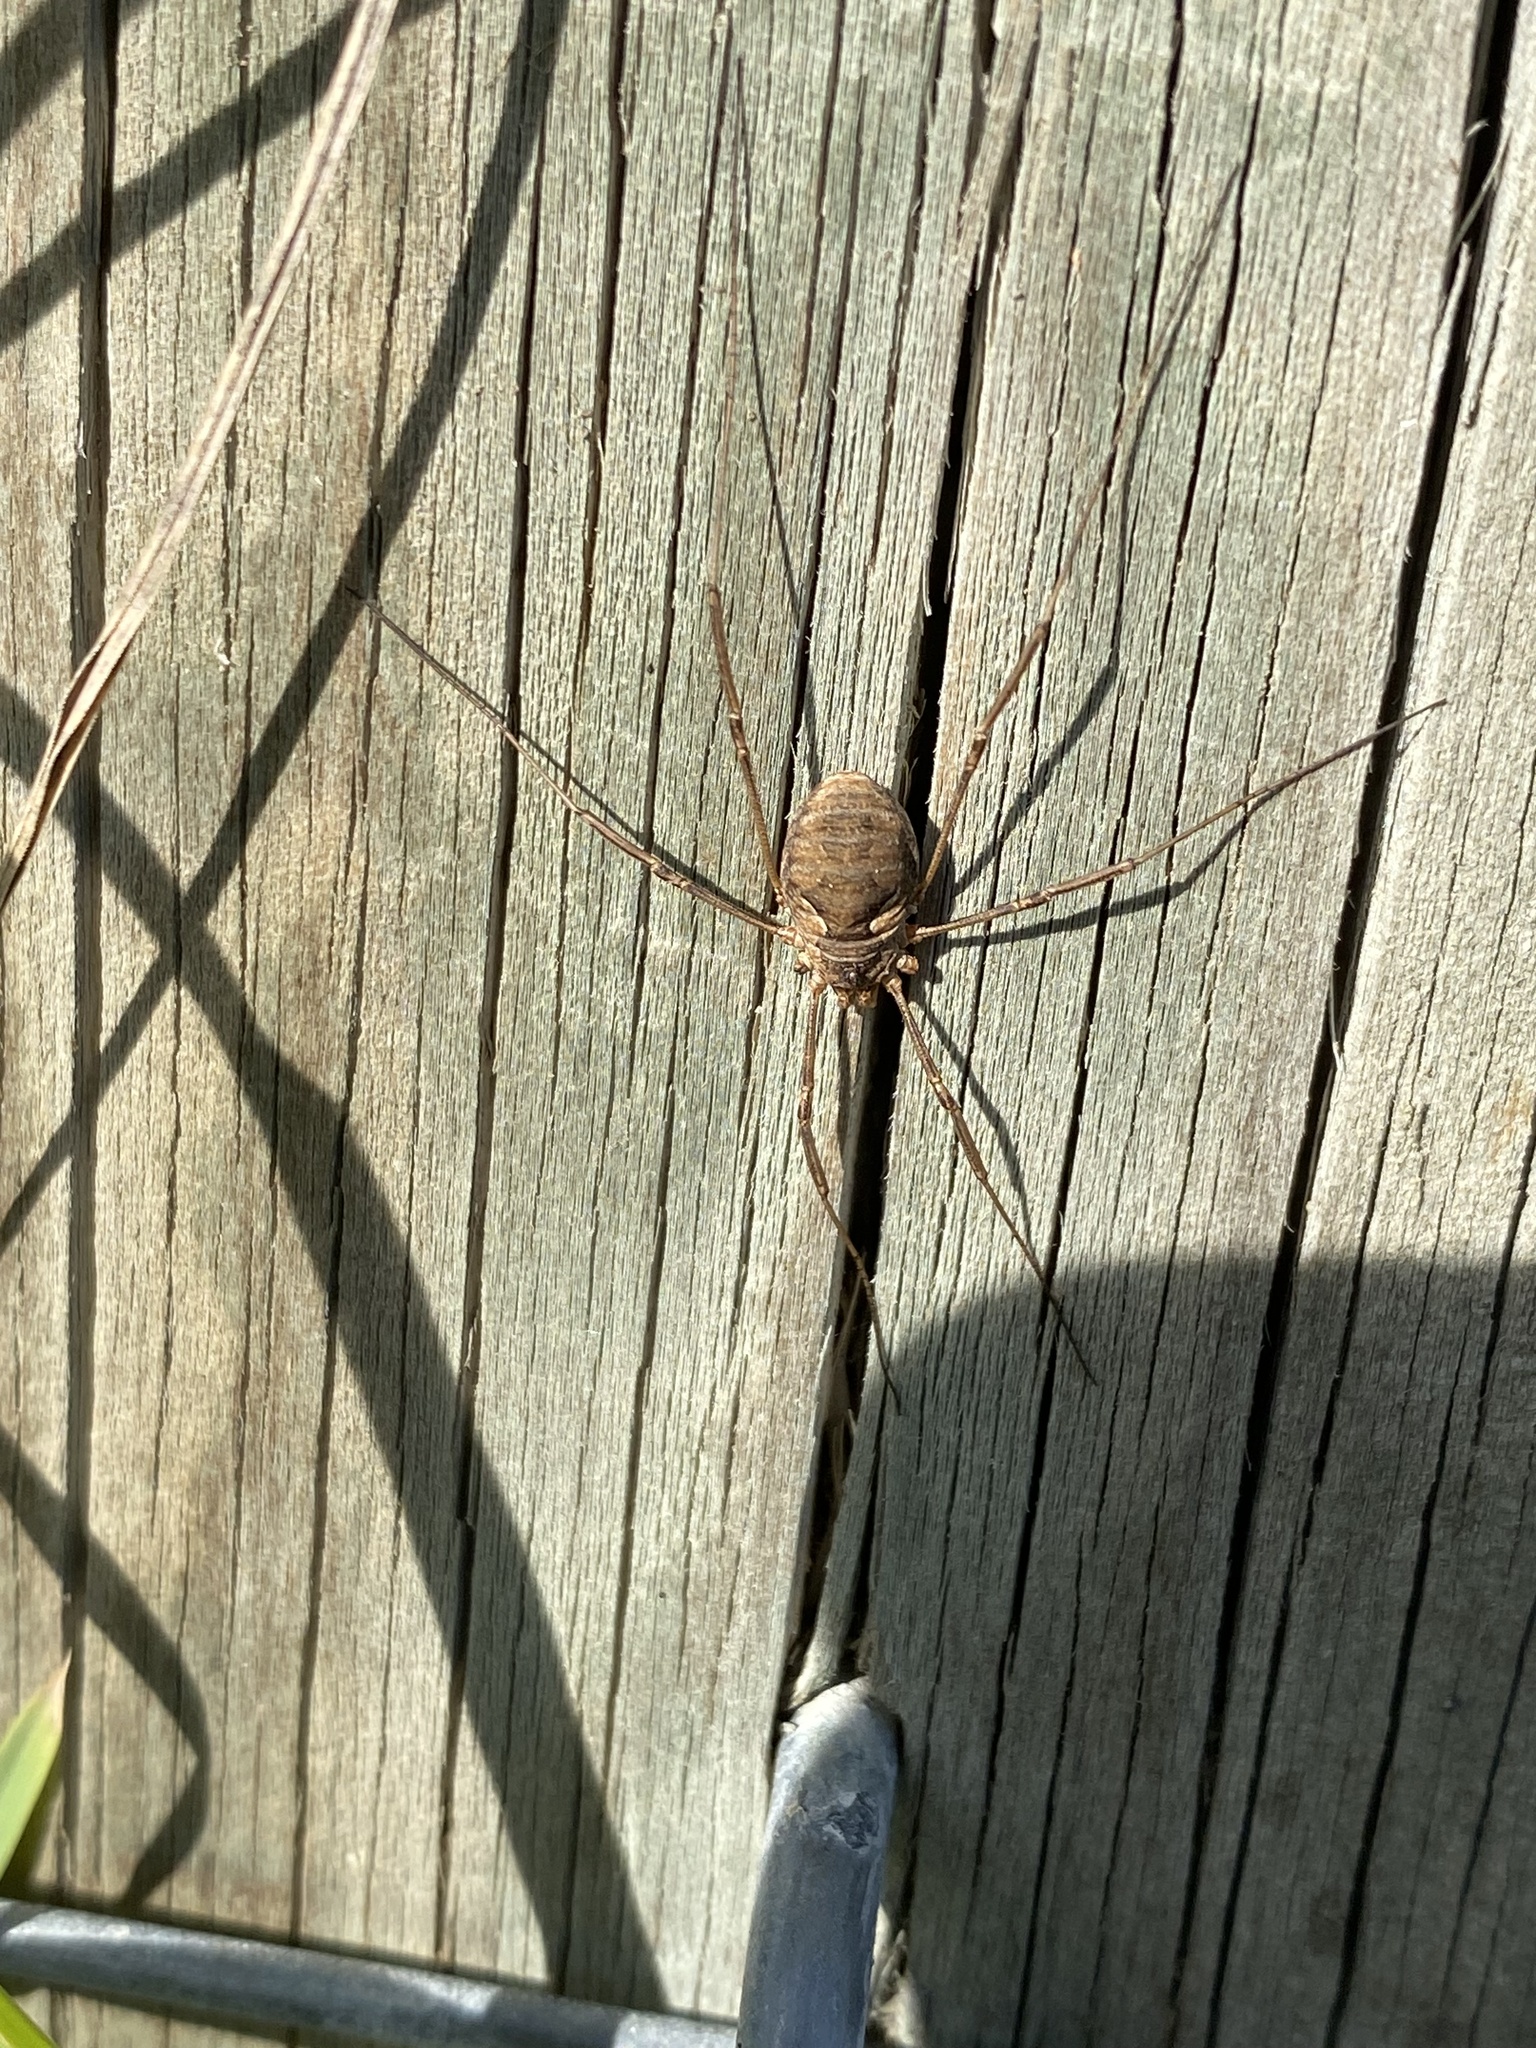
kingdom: Animalia
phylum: Arthropoda
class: Arachnida
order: Opiliones
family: Phalangiidae
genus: Phalangium
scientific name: Phalangium opilio
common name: Daddy longleg
